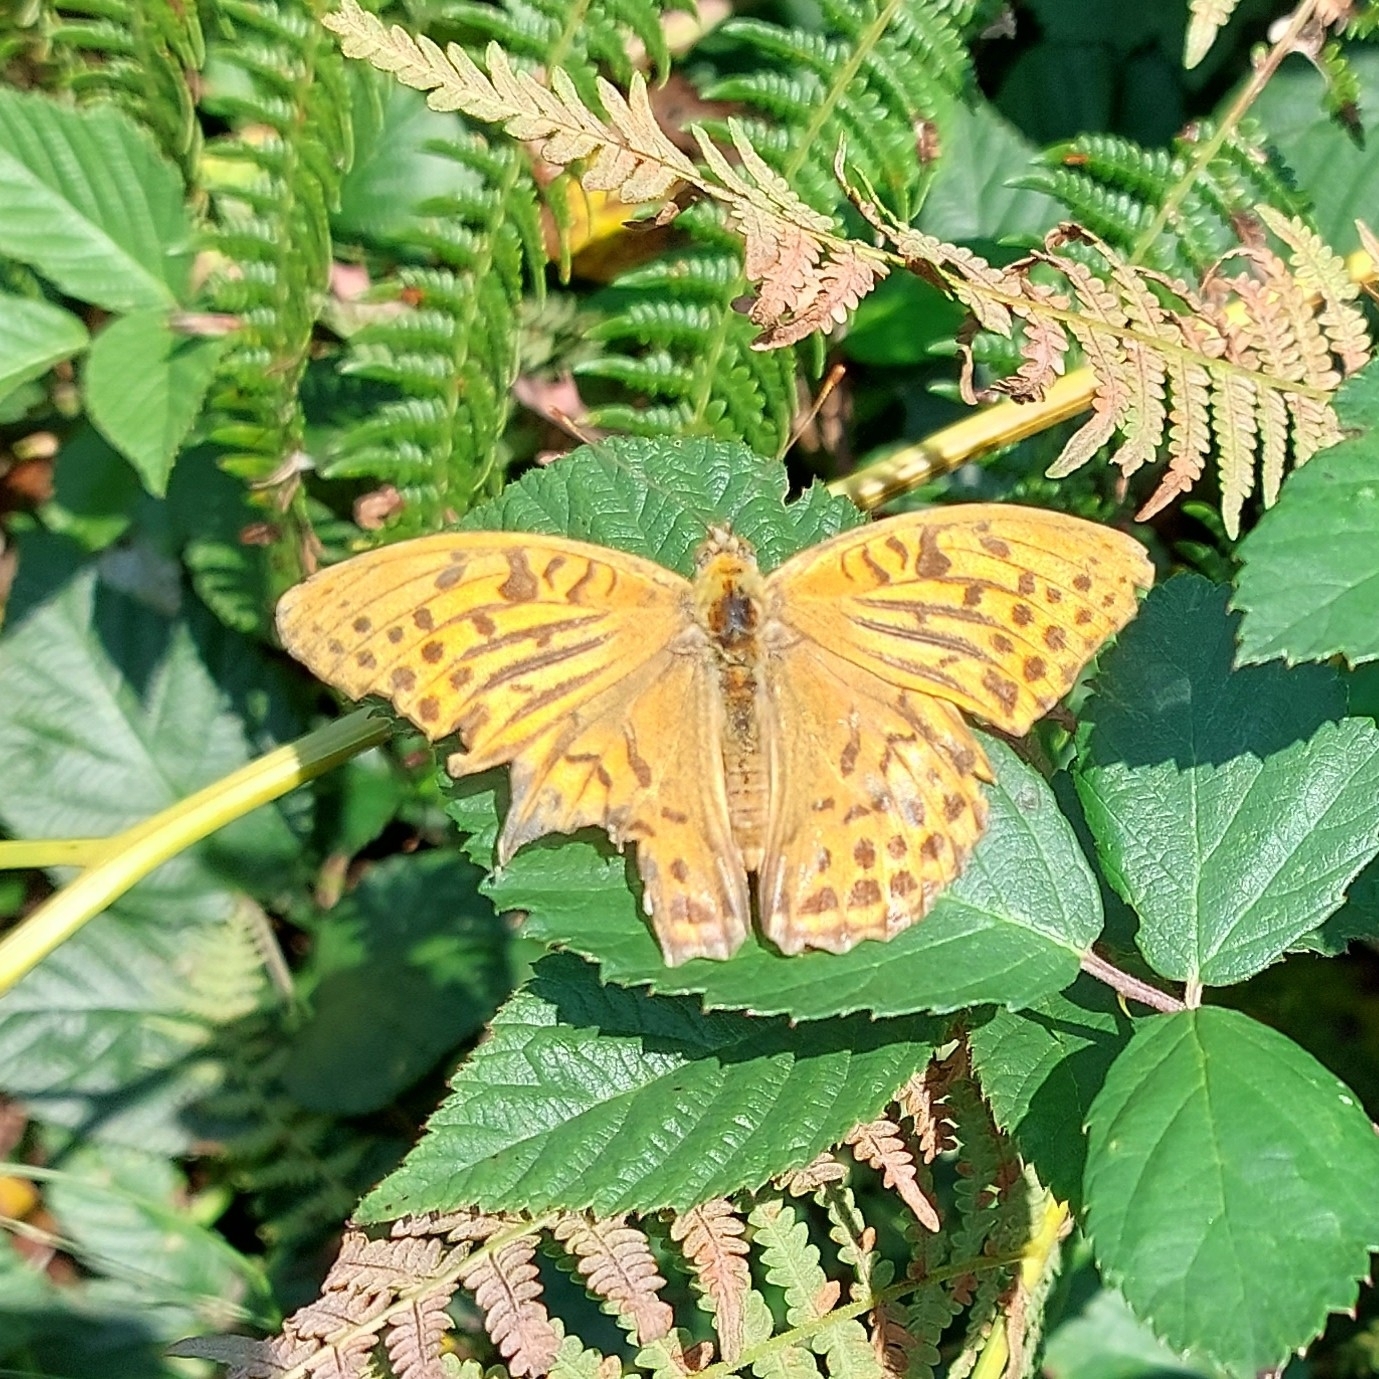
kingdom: Animalia
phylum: Arthropoda
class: Insecta
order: Lepidoptera
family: Nymphalidae
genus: Argynnis
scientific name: Argynnis paphia
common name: Silver-washed fritillary
